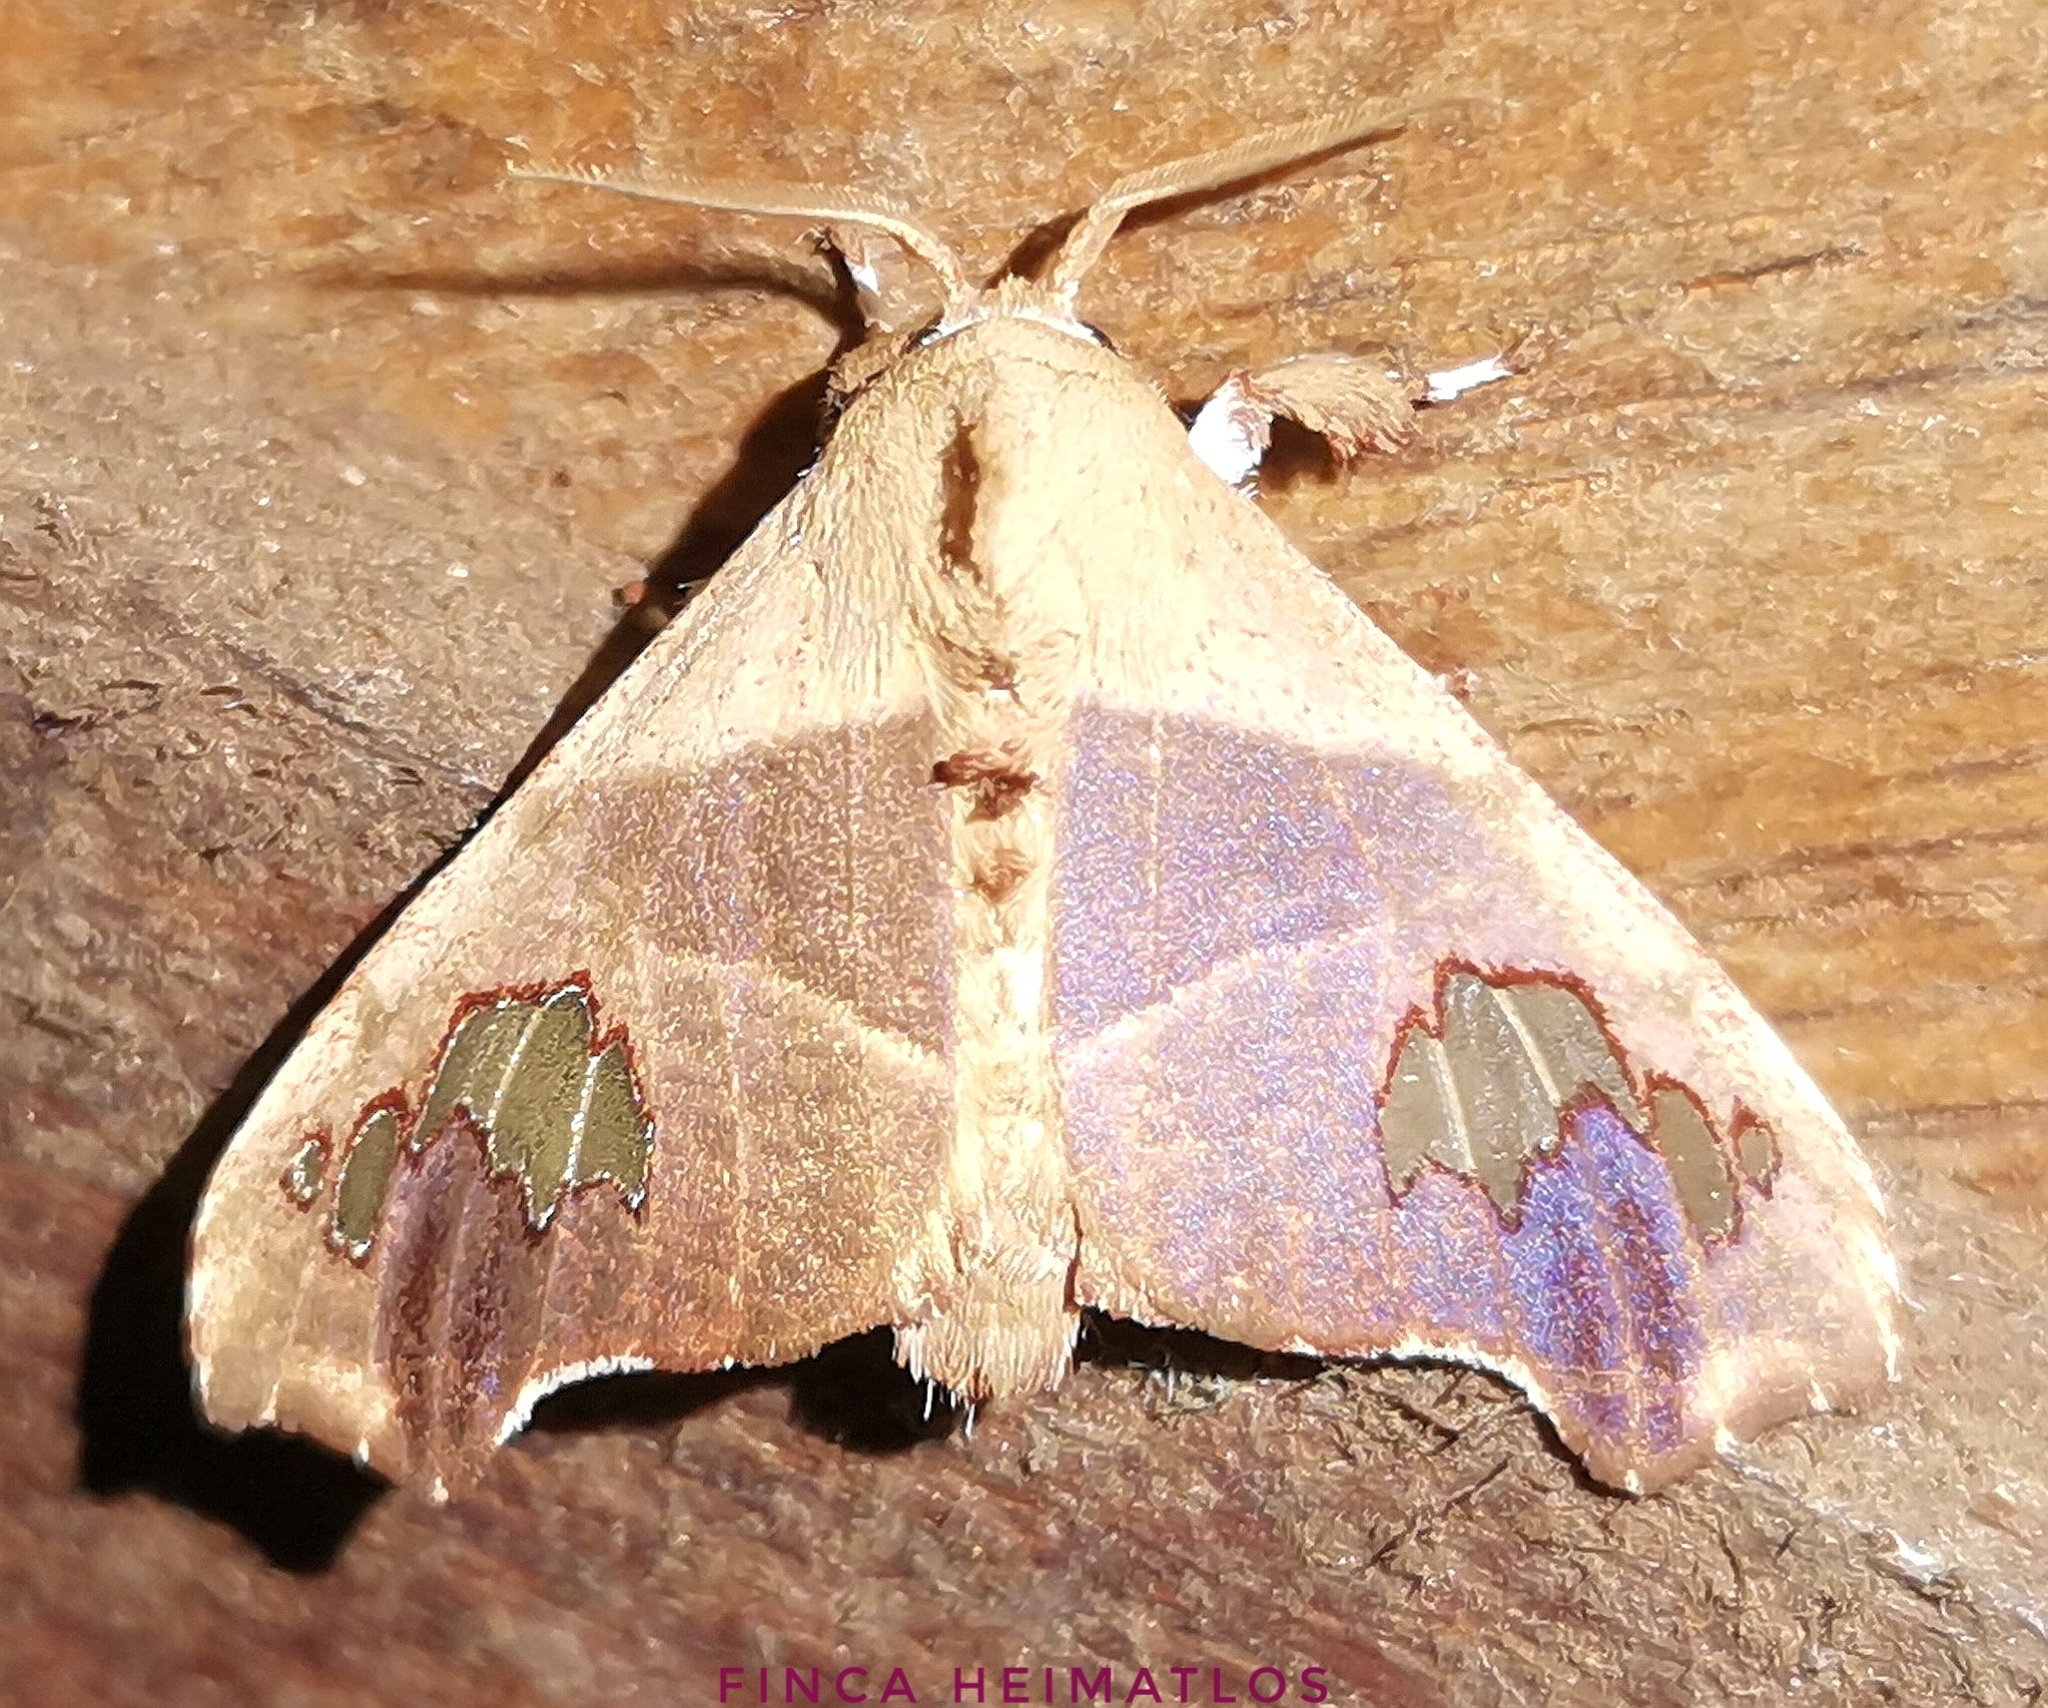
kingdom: Animalia
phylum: Arthropoda
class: Insecta
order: Lepidoptera
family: Erebidae
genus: Zatrephes
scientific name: Zatrephes haxairei
